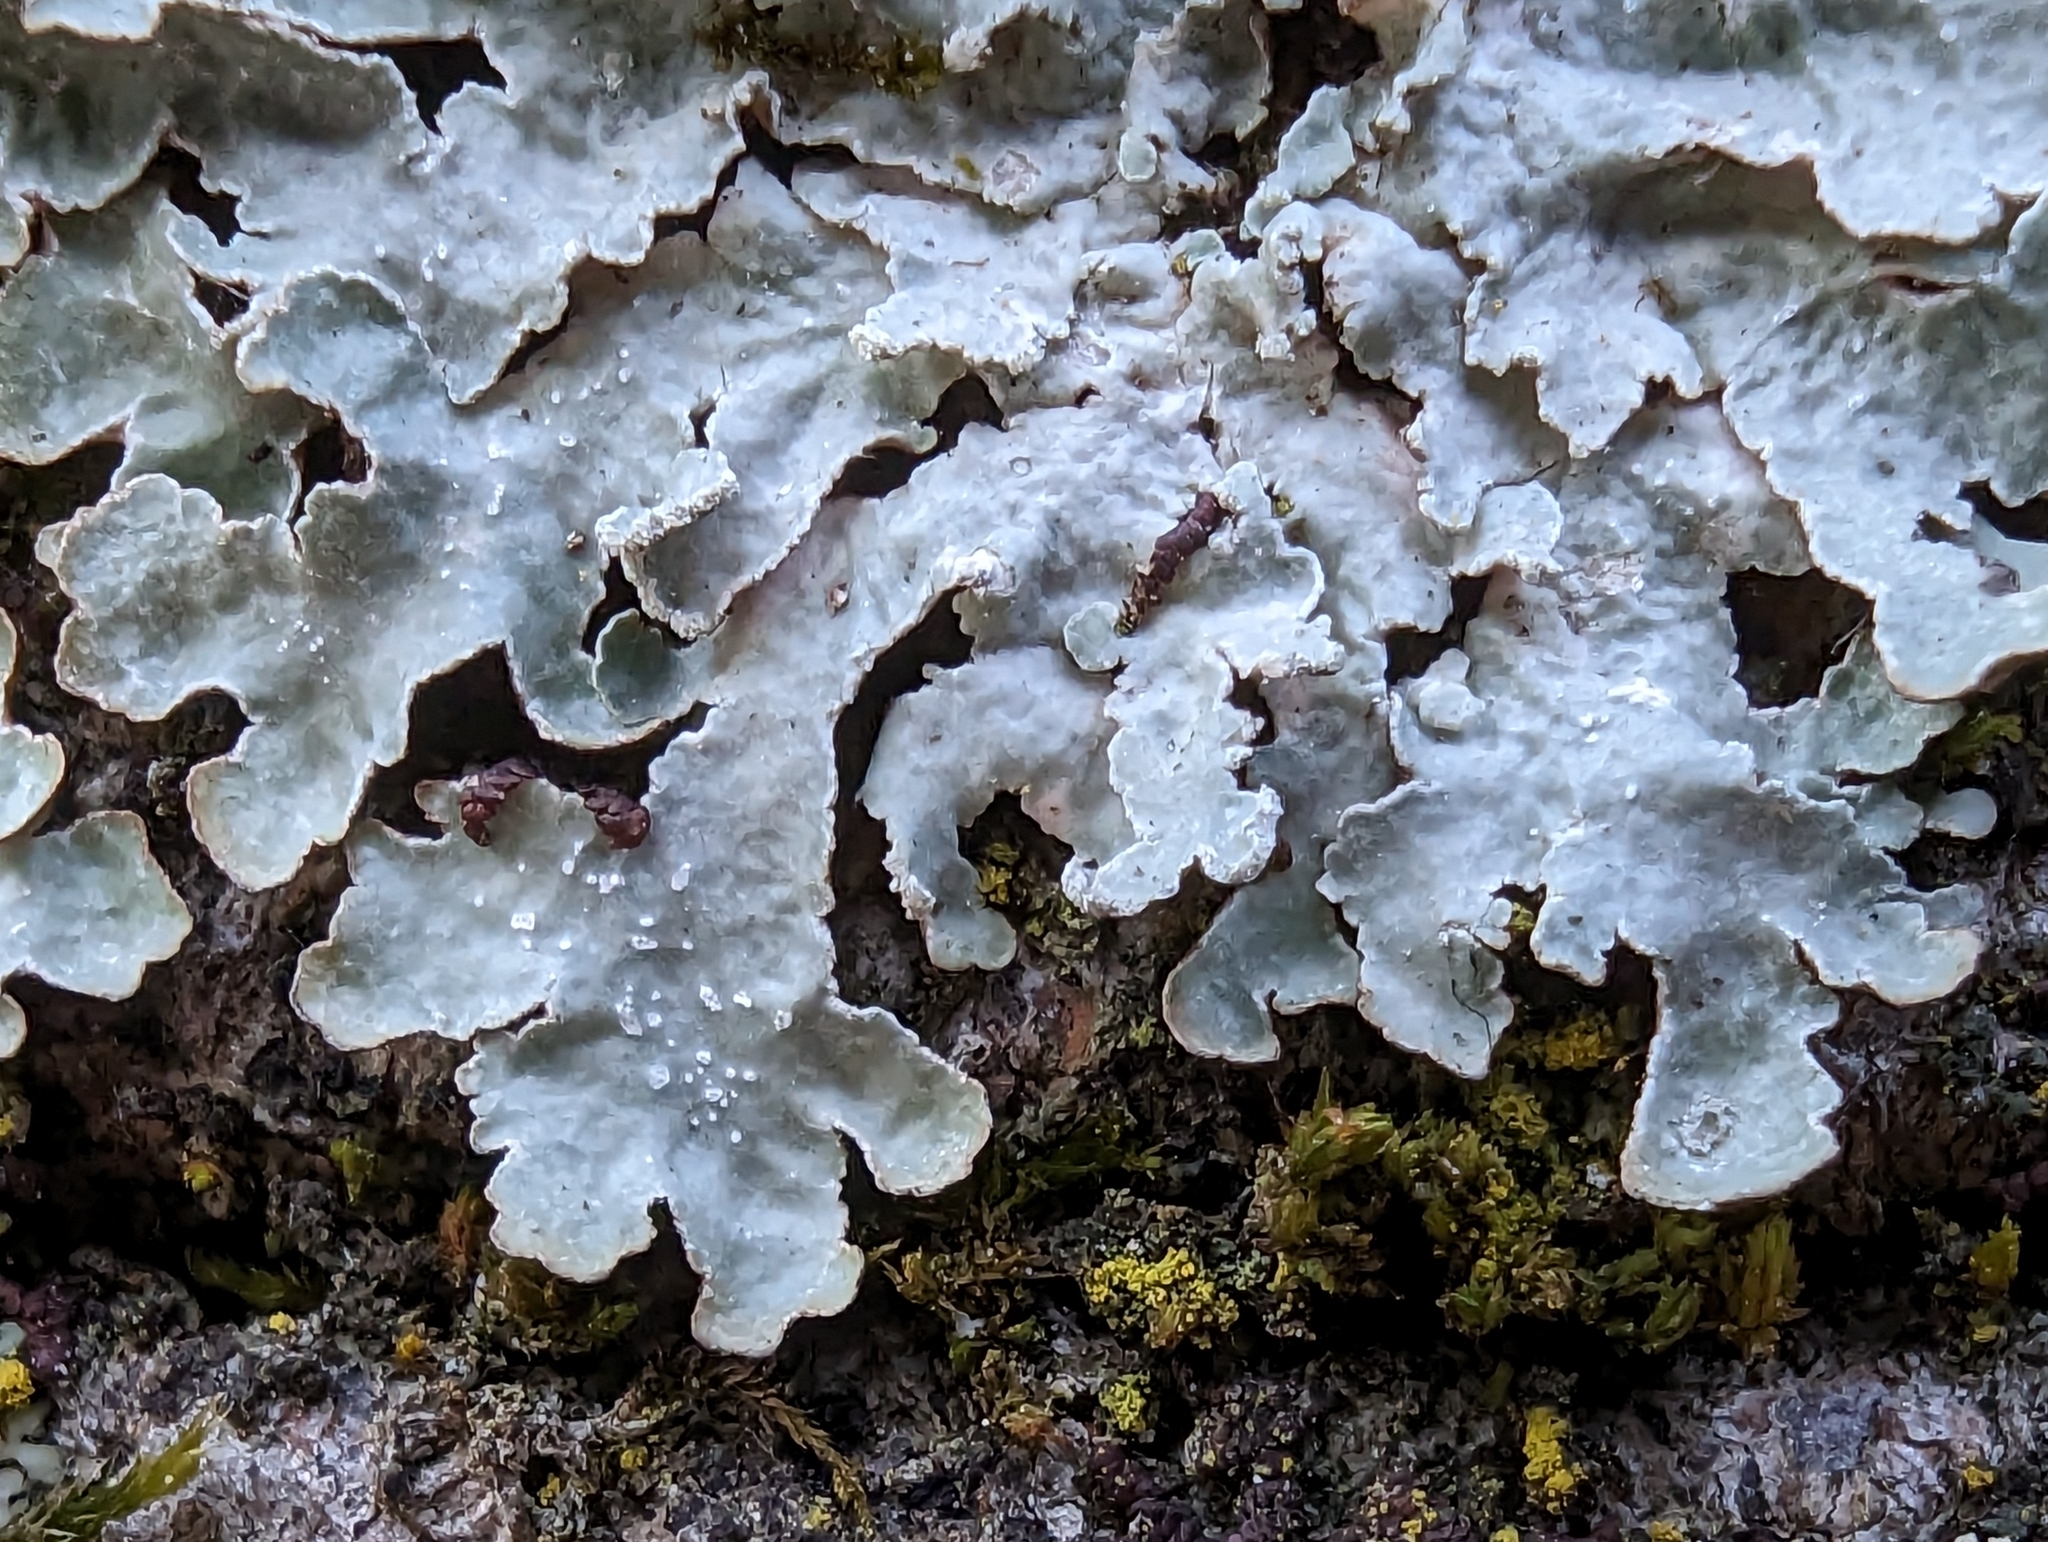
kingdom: Fungi
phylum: Ascomycota
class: Lecanoromycetes
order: Lecanorales
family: Parmeliaceae
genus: Punctelia
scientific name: Punctelia jeckeri
